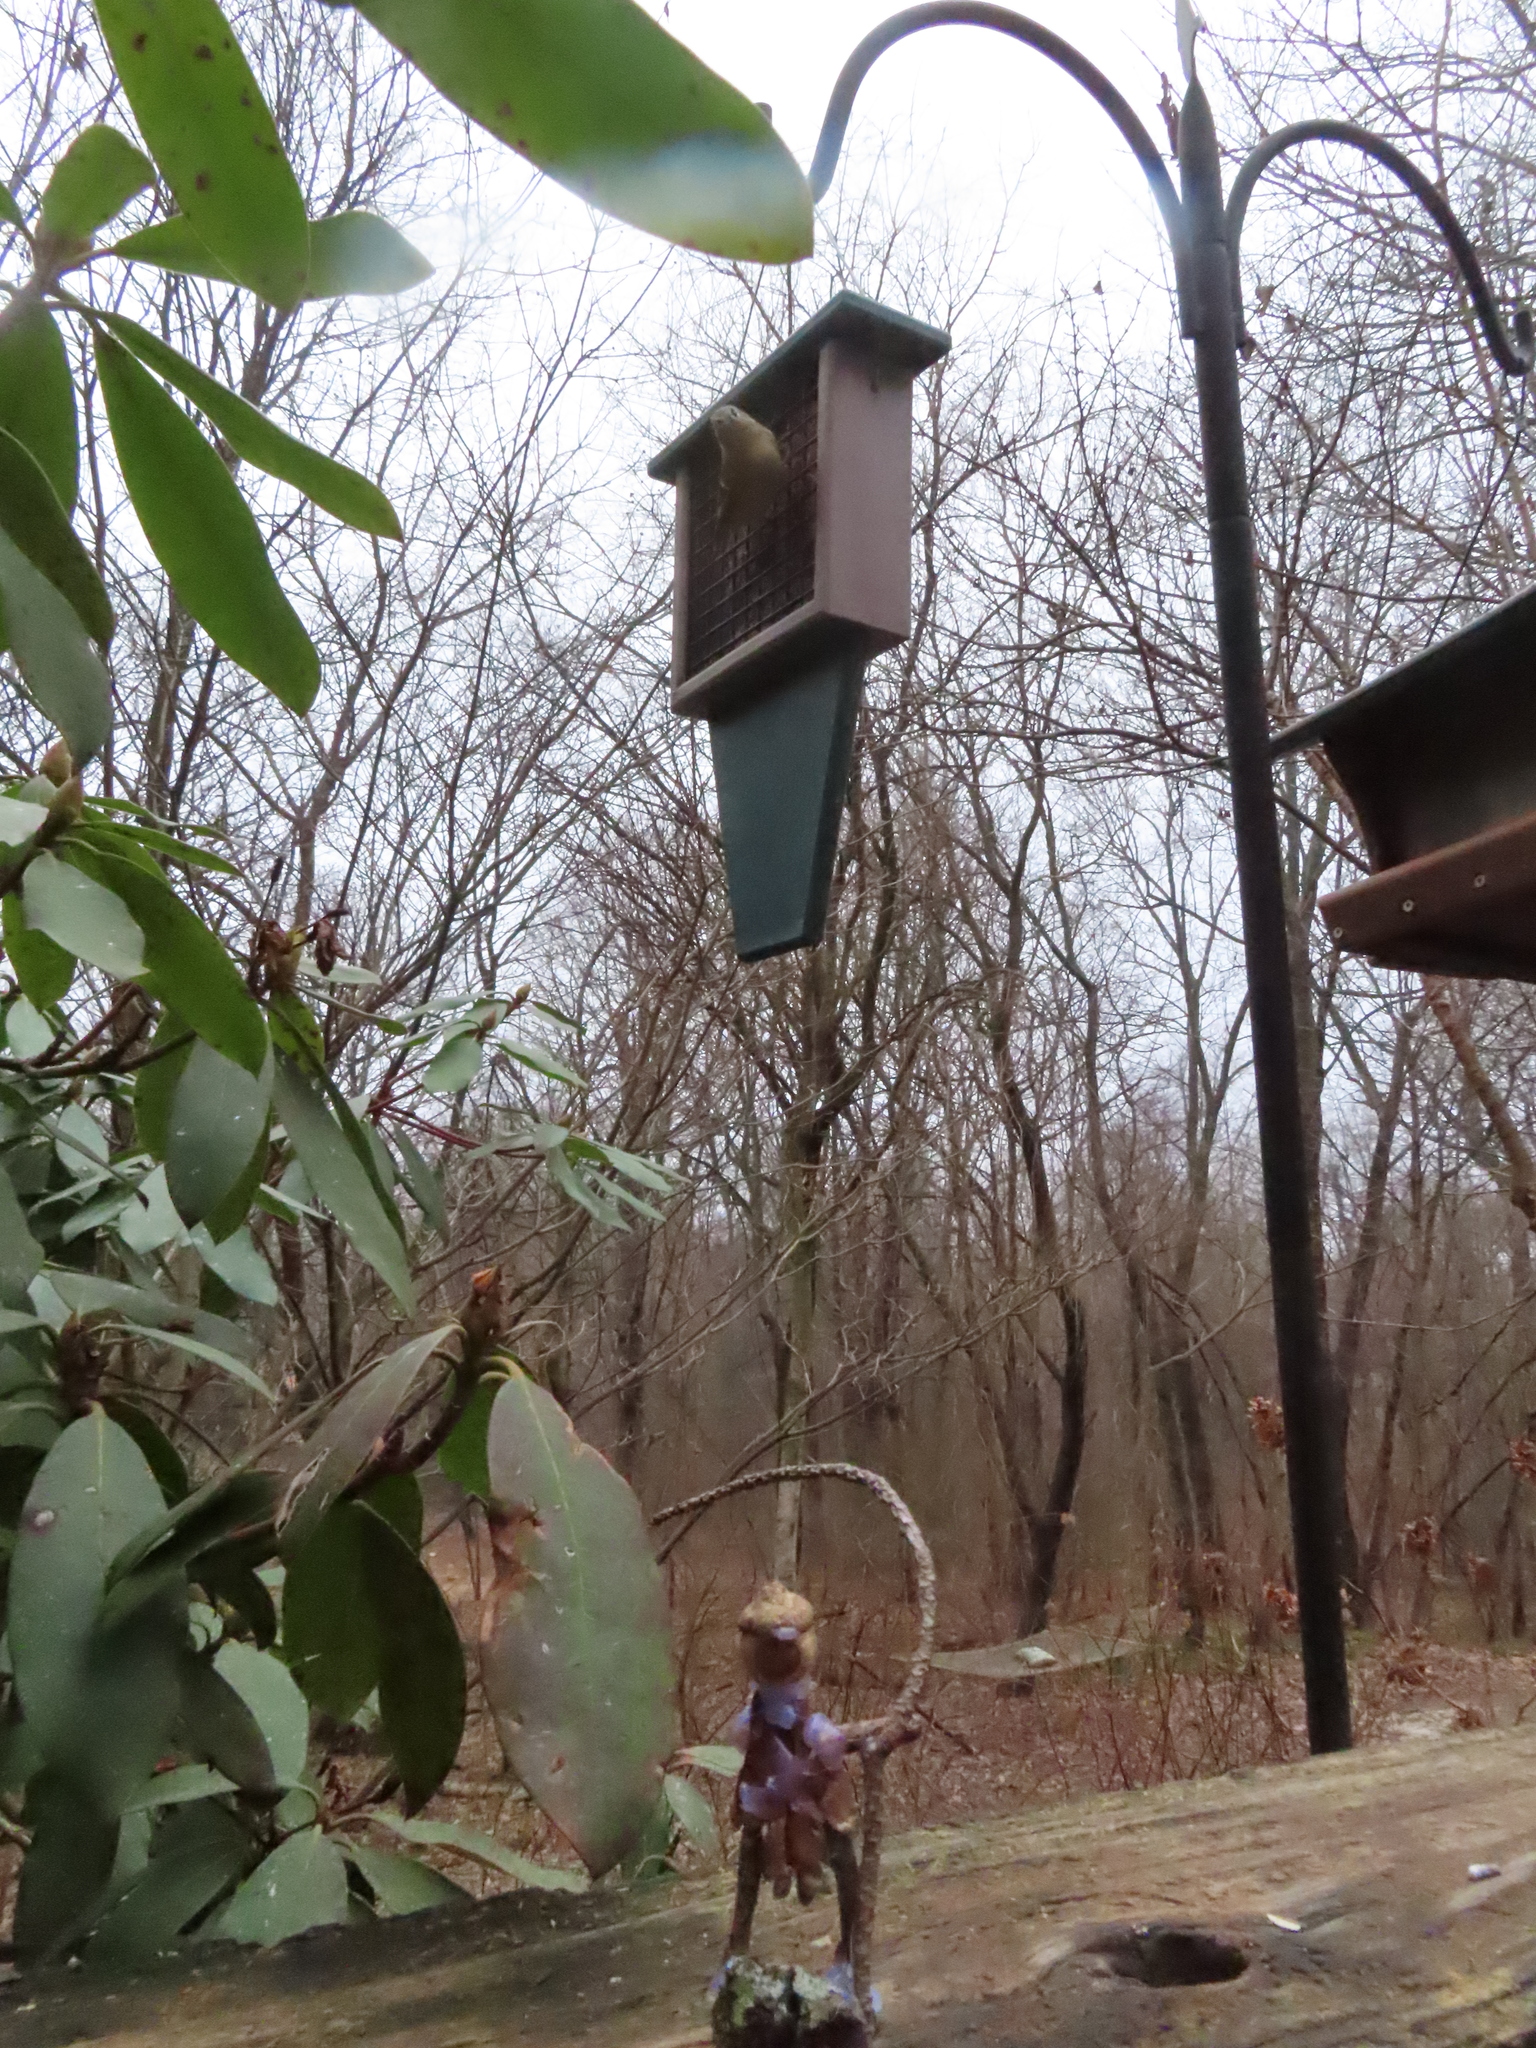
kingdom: Animalia
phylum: Chordata
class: Aves
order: Passeriformes
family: Regulidae
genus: Regulus
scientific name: Regulus calendula
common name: Ruby-crowned kinglet
